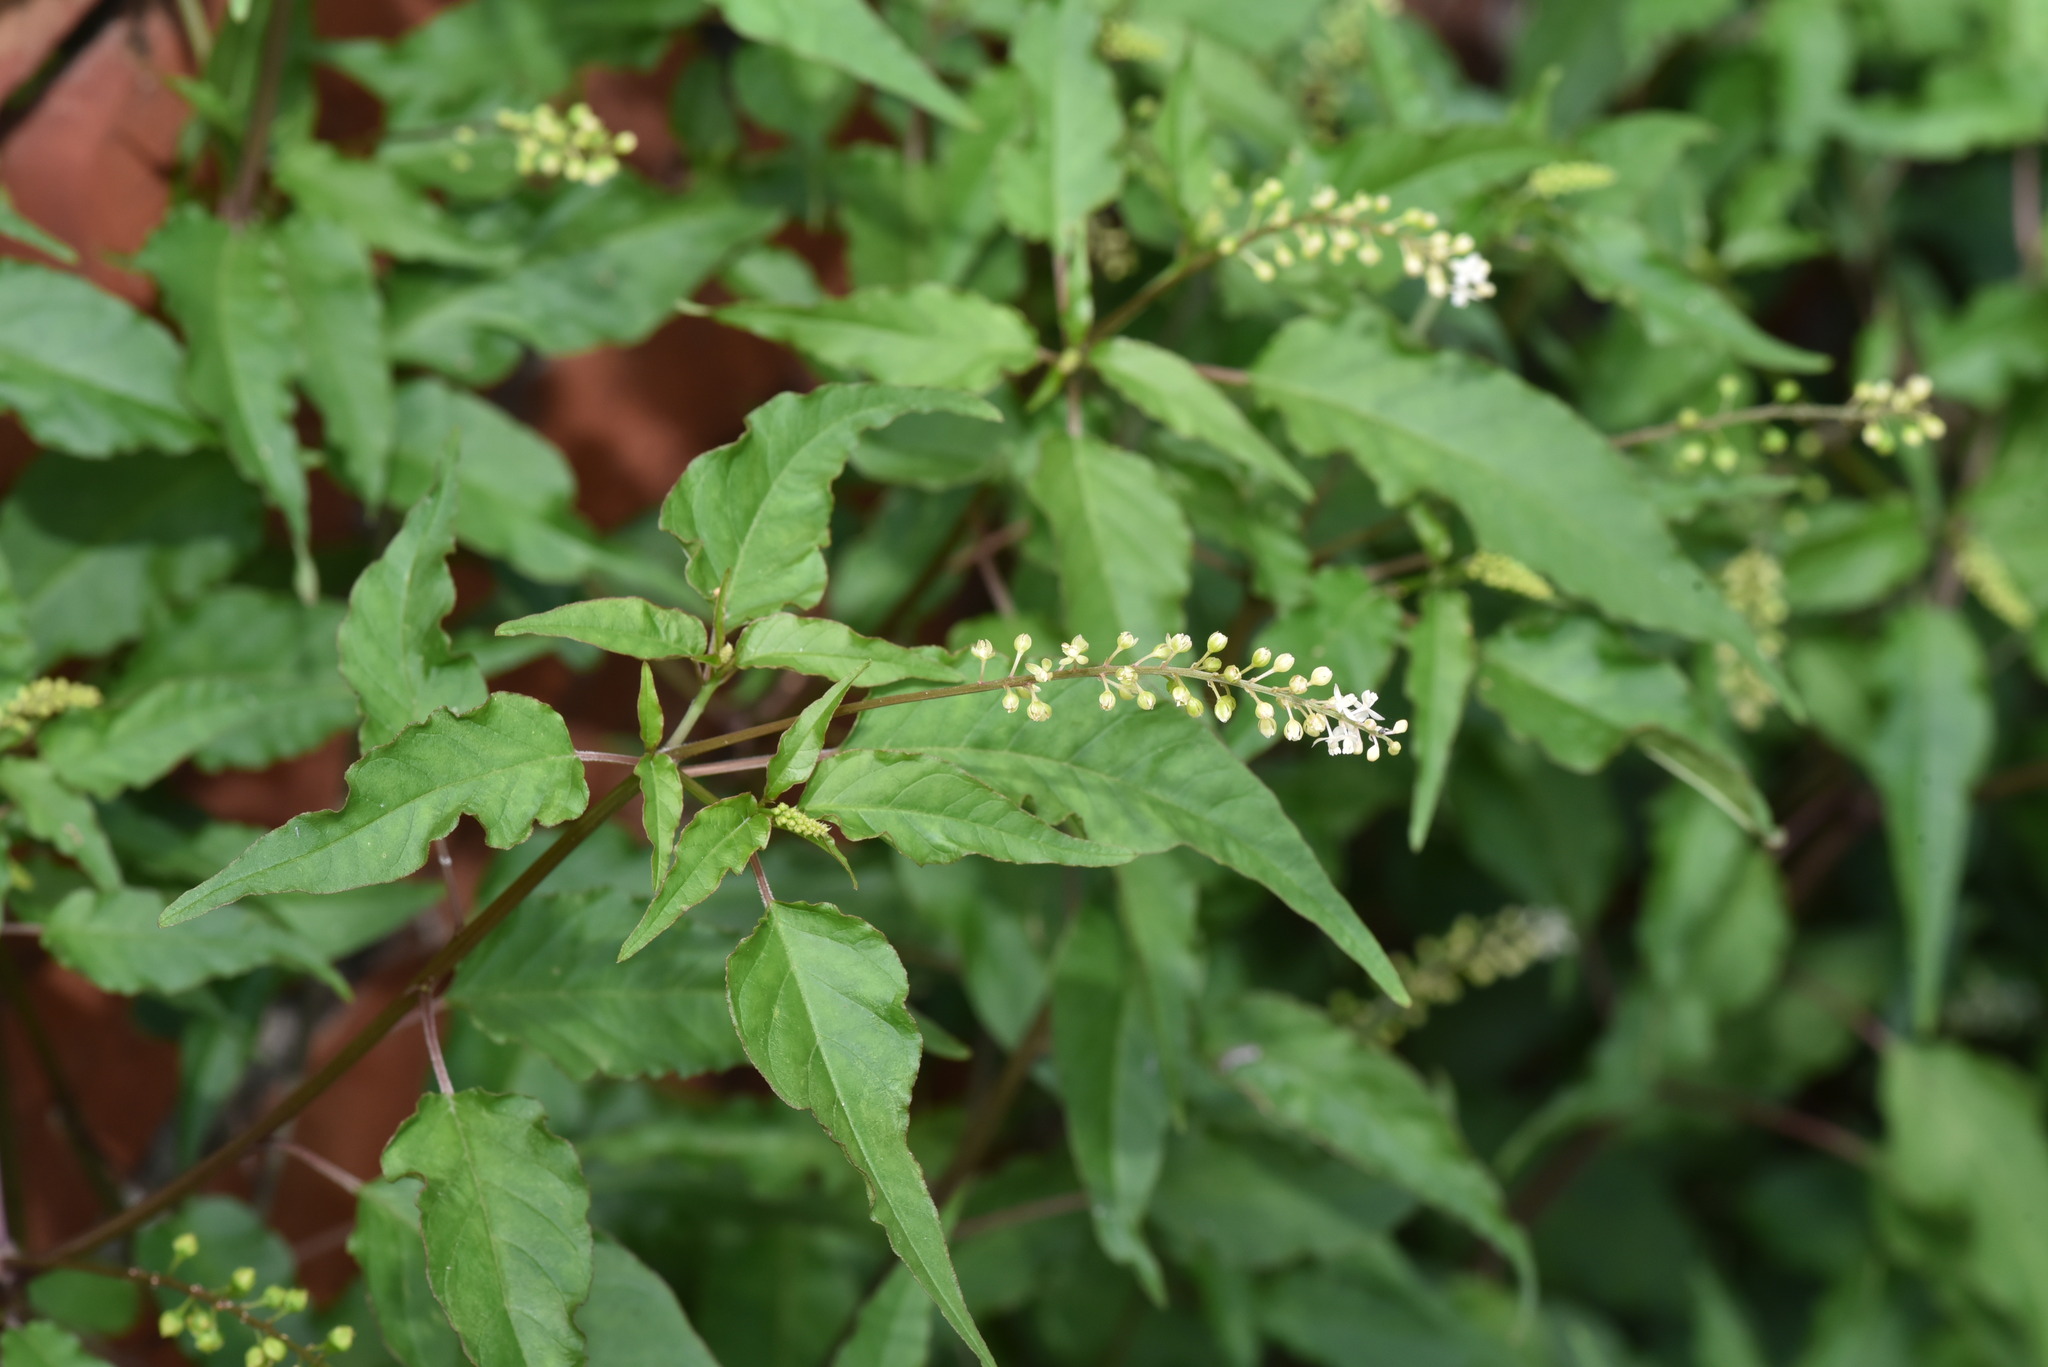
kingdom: Plantae
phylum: Tracheophyta
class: Magnoliopsida
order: Caryophyllales
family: Phytolaccaceae
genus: Rivina
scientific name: Rivina humilis
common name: Rougeplant
